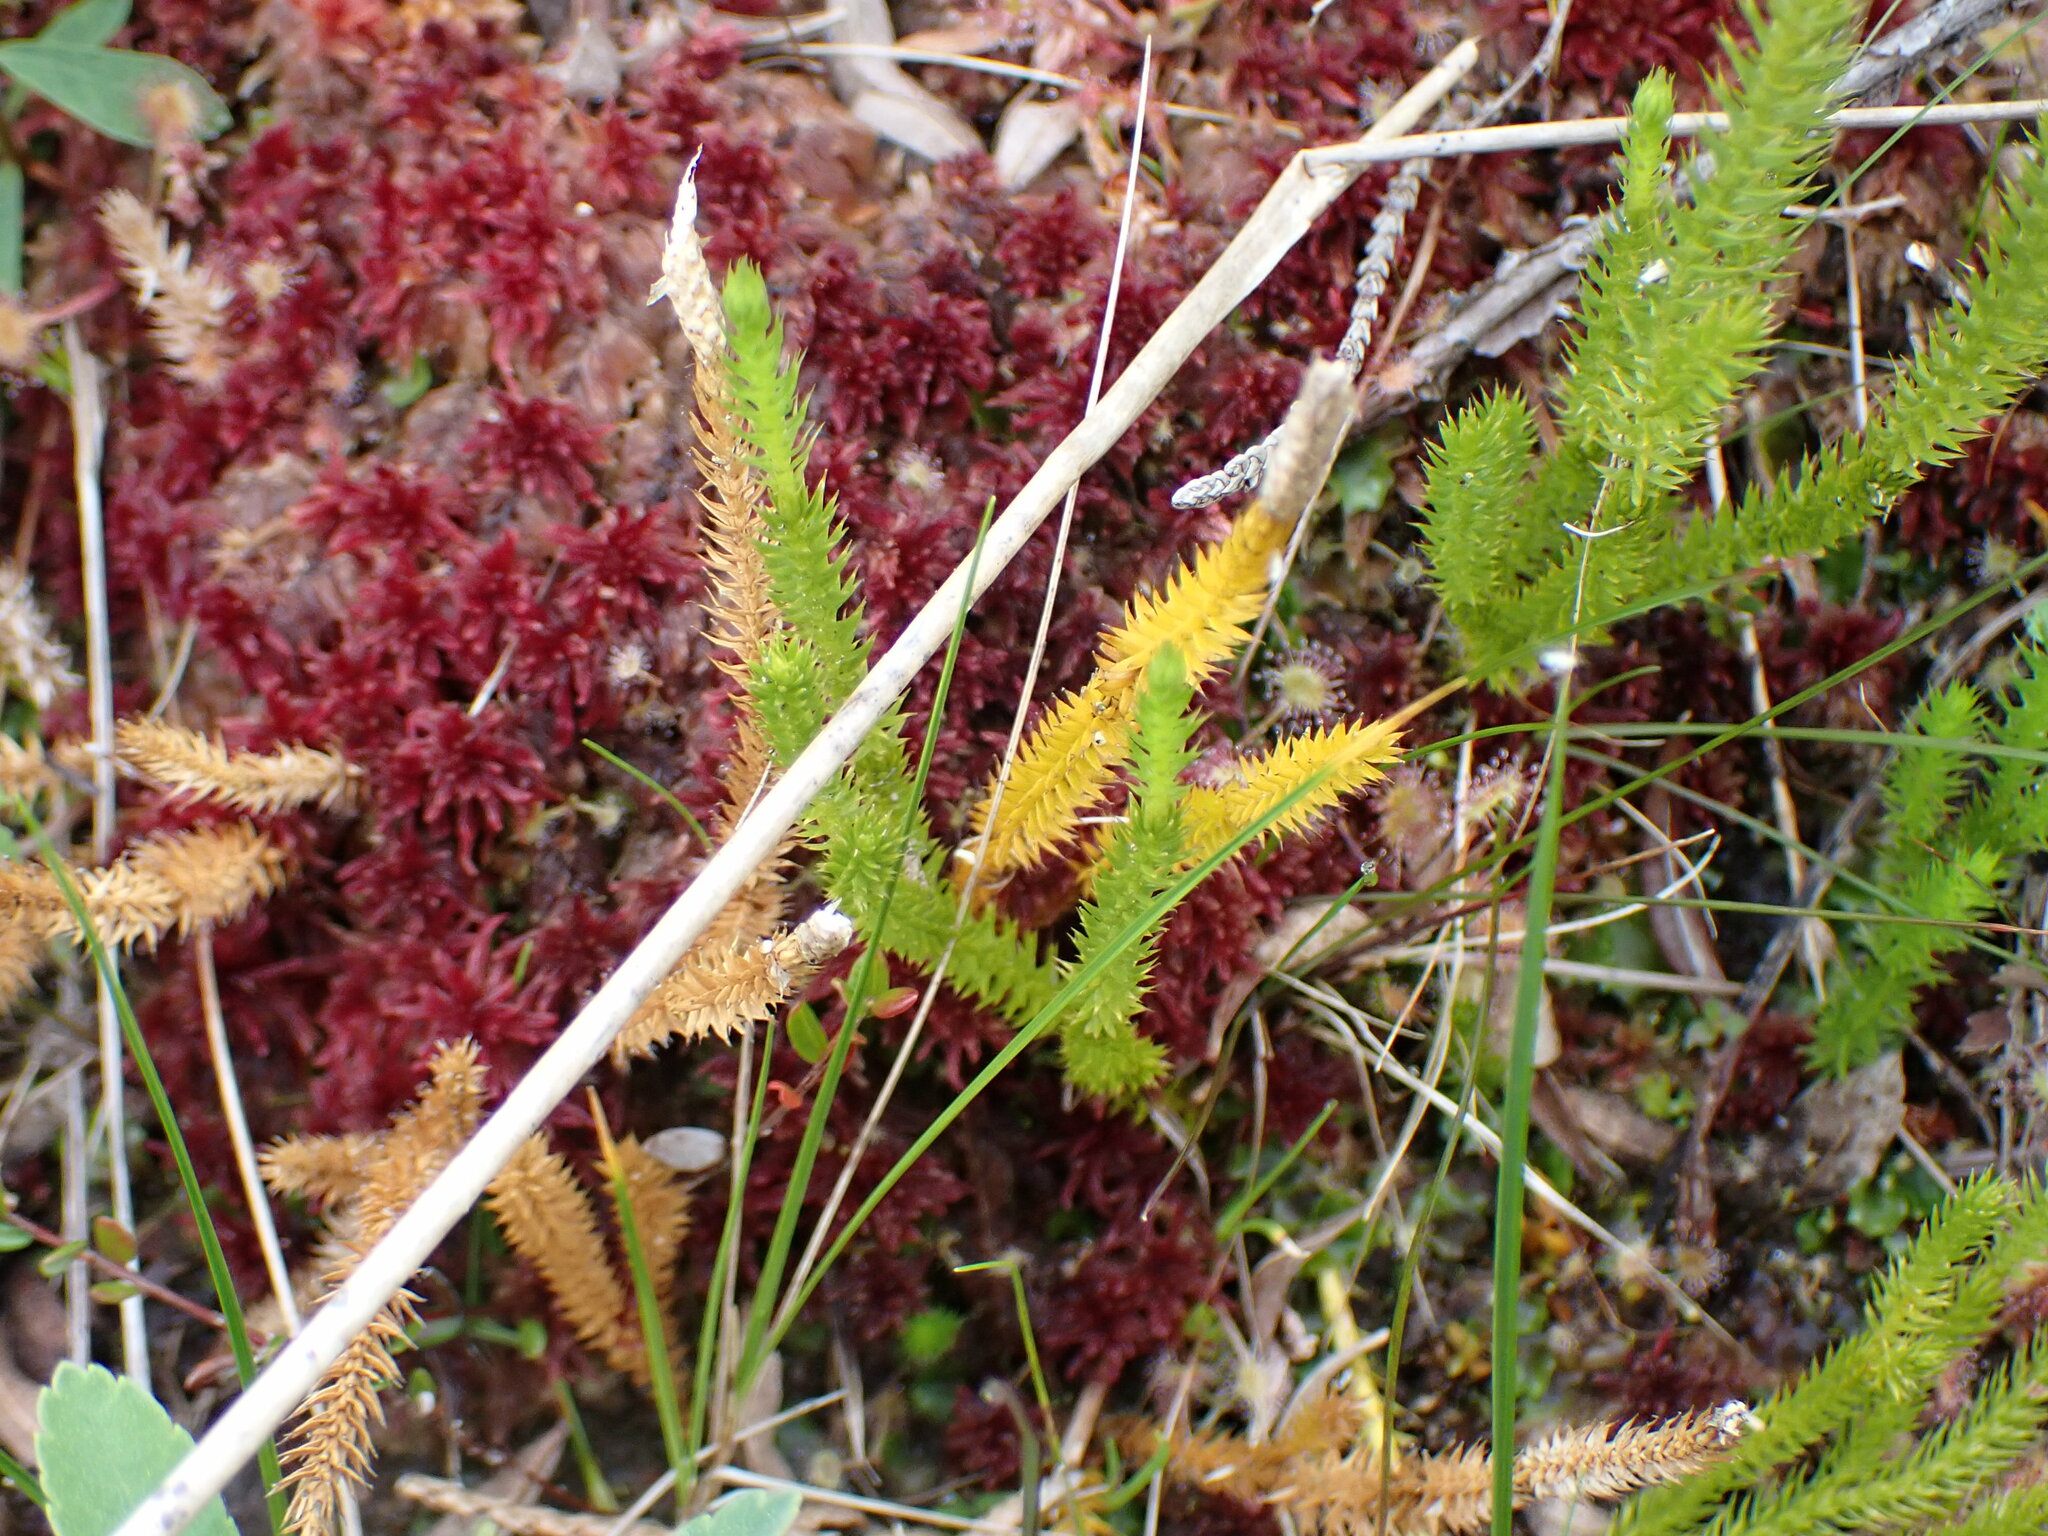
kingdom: Plantae
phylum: Tracheophyta
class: Lycopodiopsida
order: Lycopodiales
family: Lycopodiaceae
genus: Spinulum
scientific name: Spinulum annotinum
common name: Interrupted club-moss
